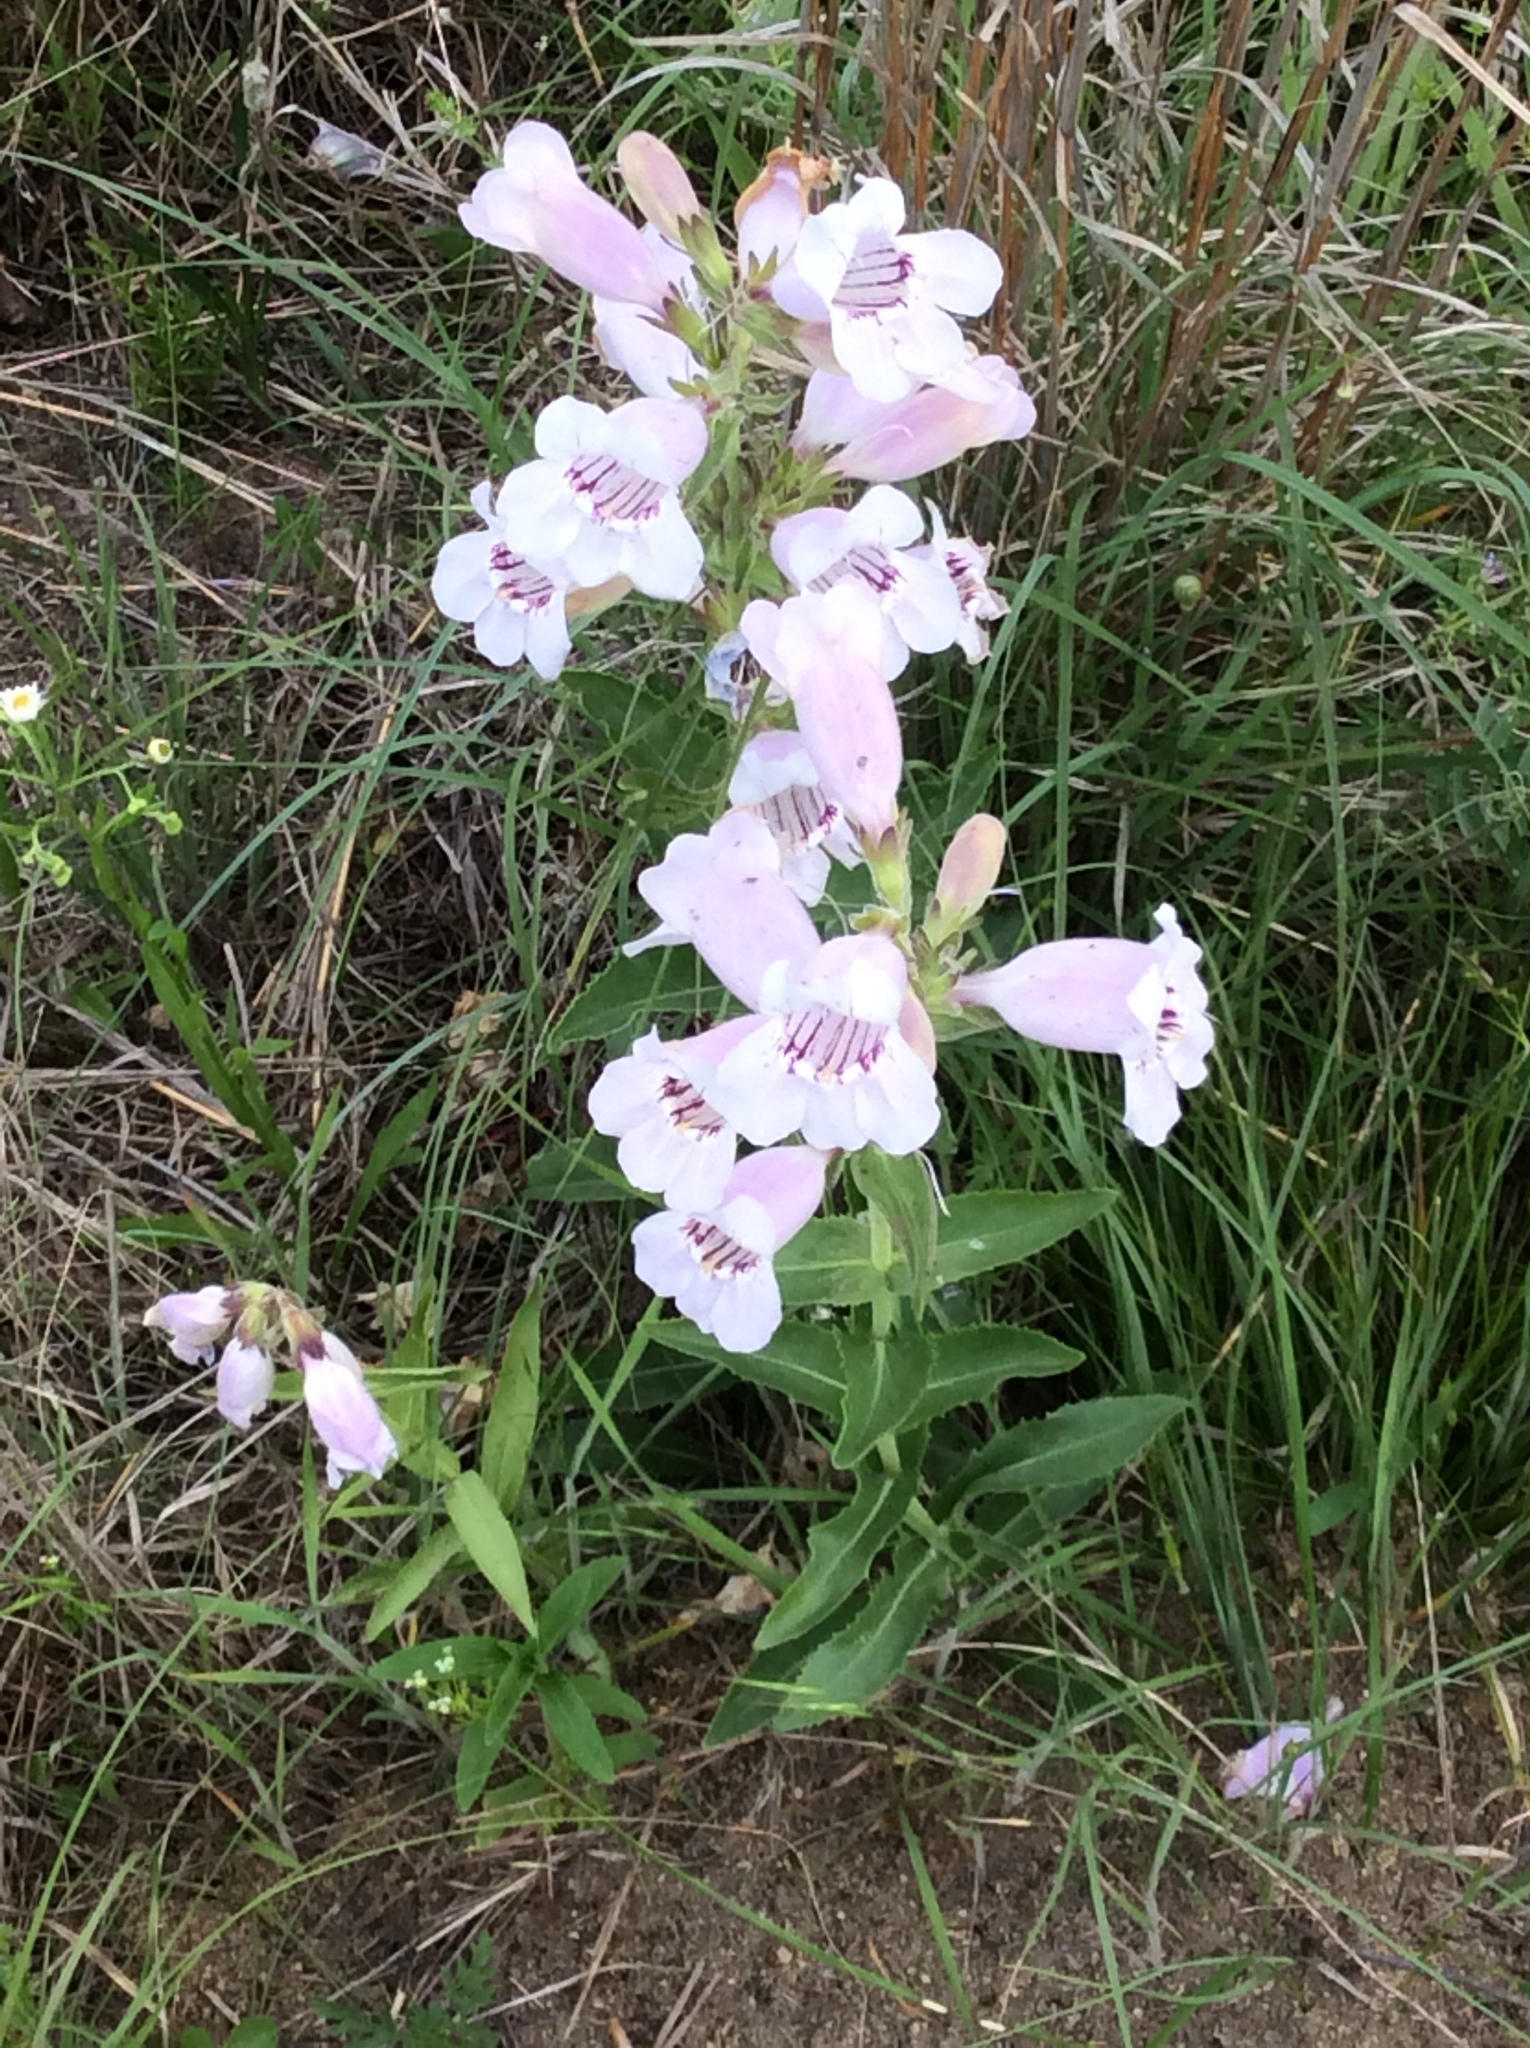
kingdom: Plantae
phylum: Tracheophyta
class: Magnoliopsida
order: Lamiales
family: Plantaginaceae
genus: Penstemon
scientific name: Penstemon cobaea
